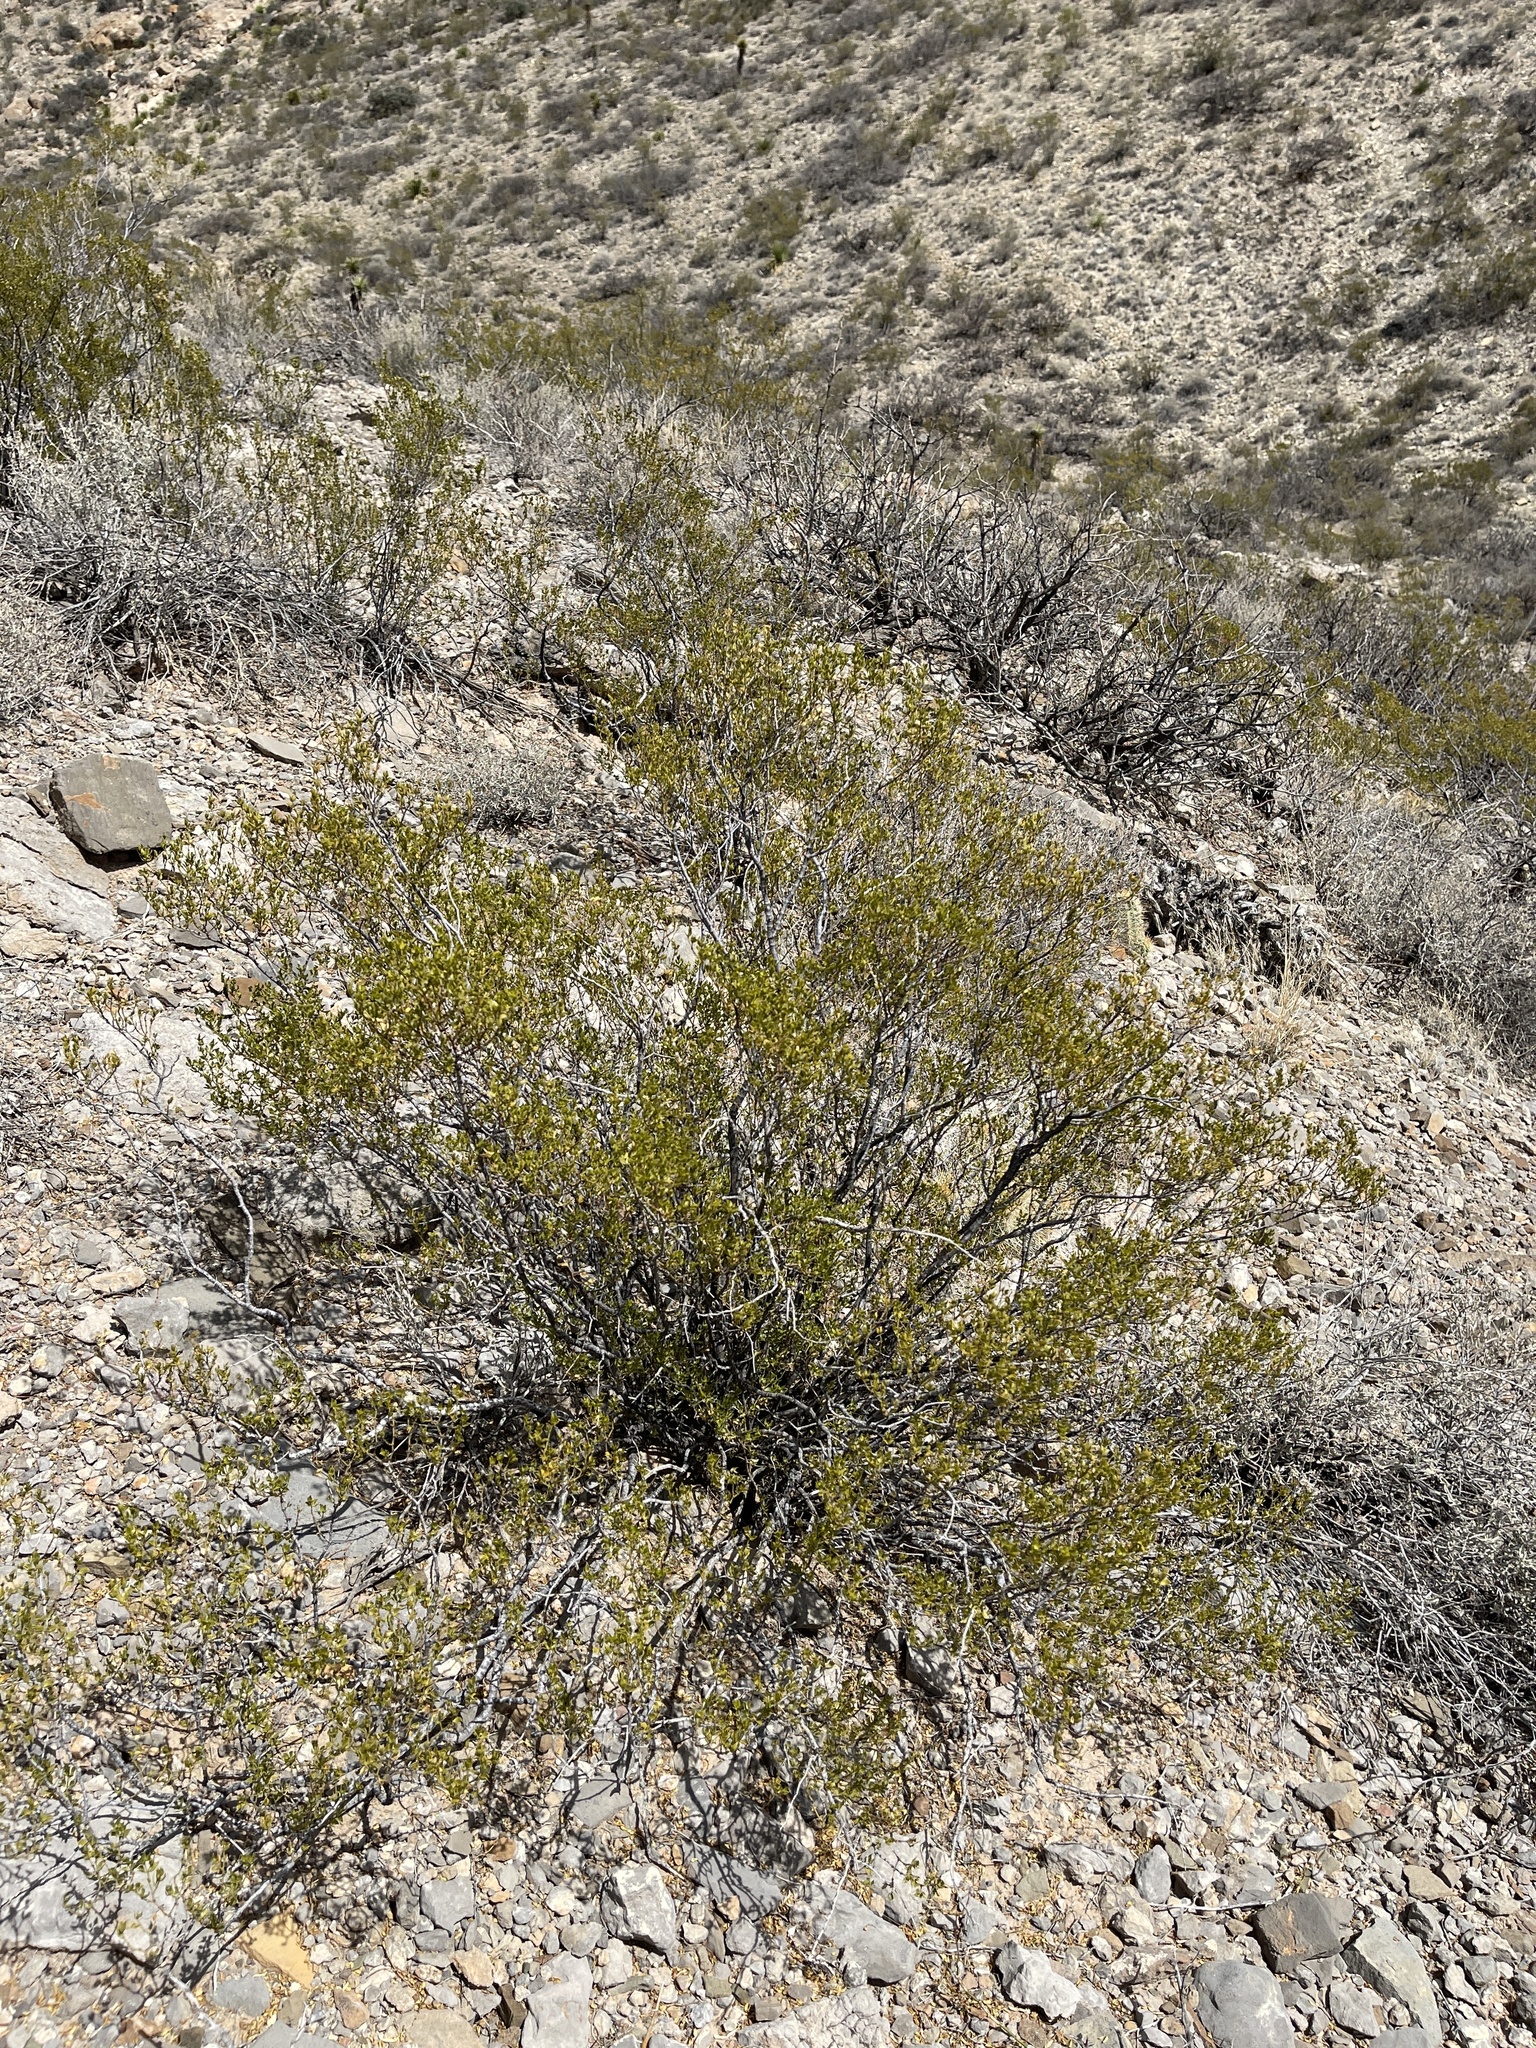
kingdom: Plantae
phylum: Tracheophyta
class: Magnoliopsida
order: Zygophyllales
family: Zygophyllaceae
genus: Larrea
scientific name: Larrea tridentata
